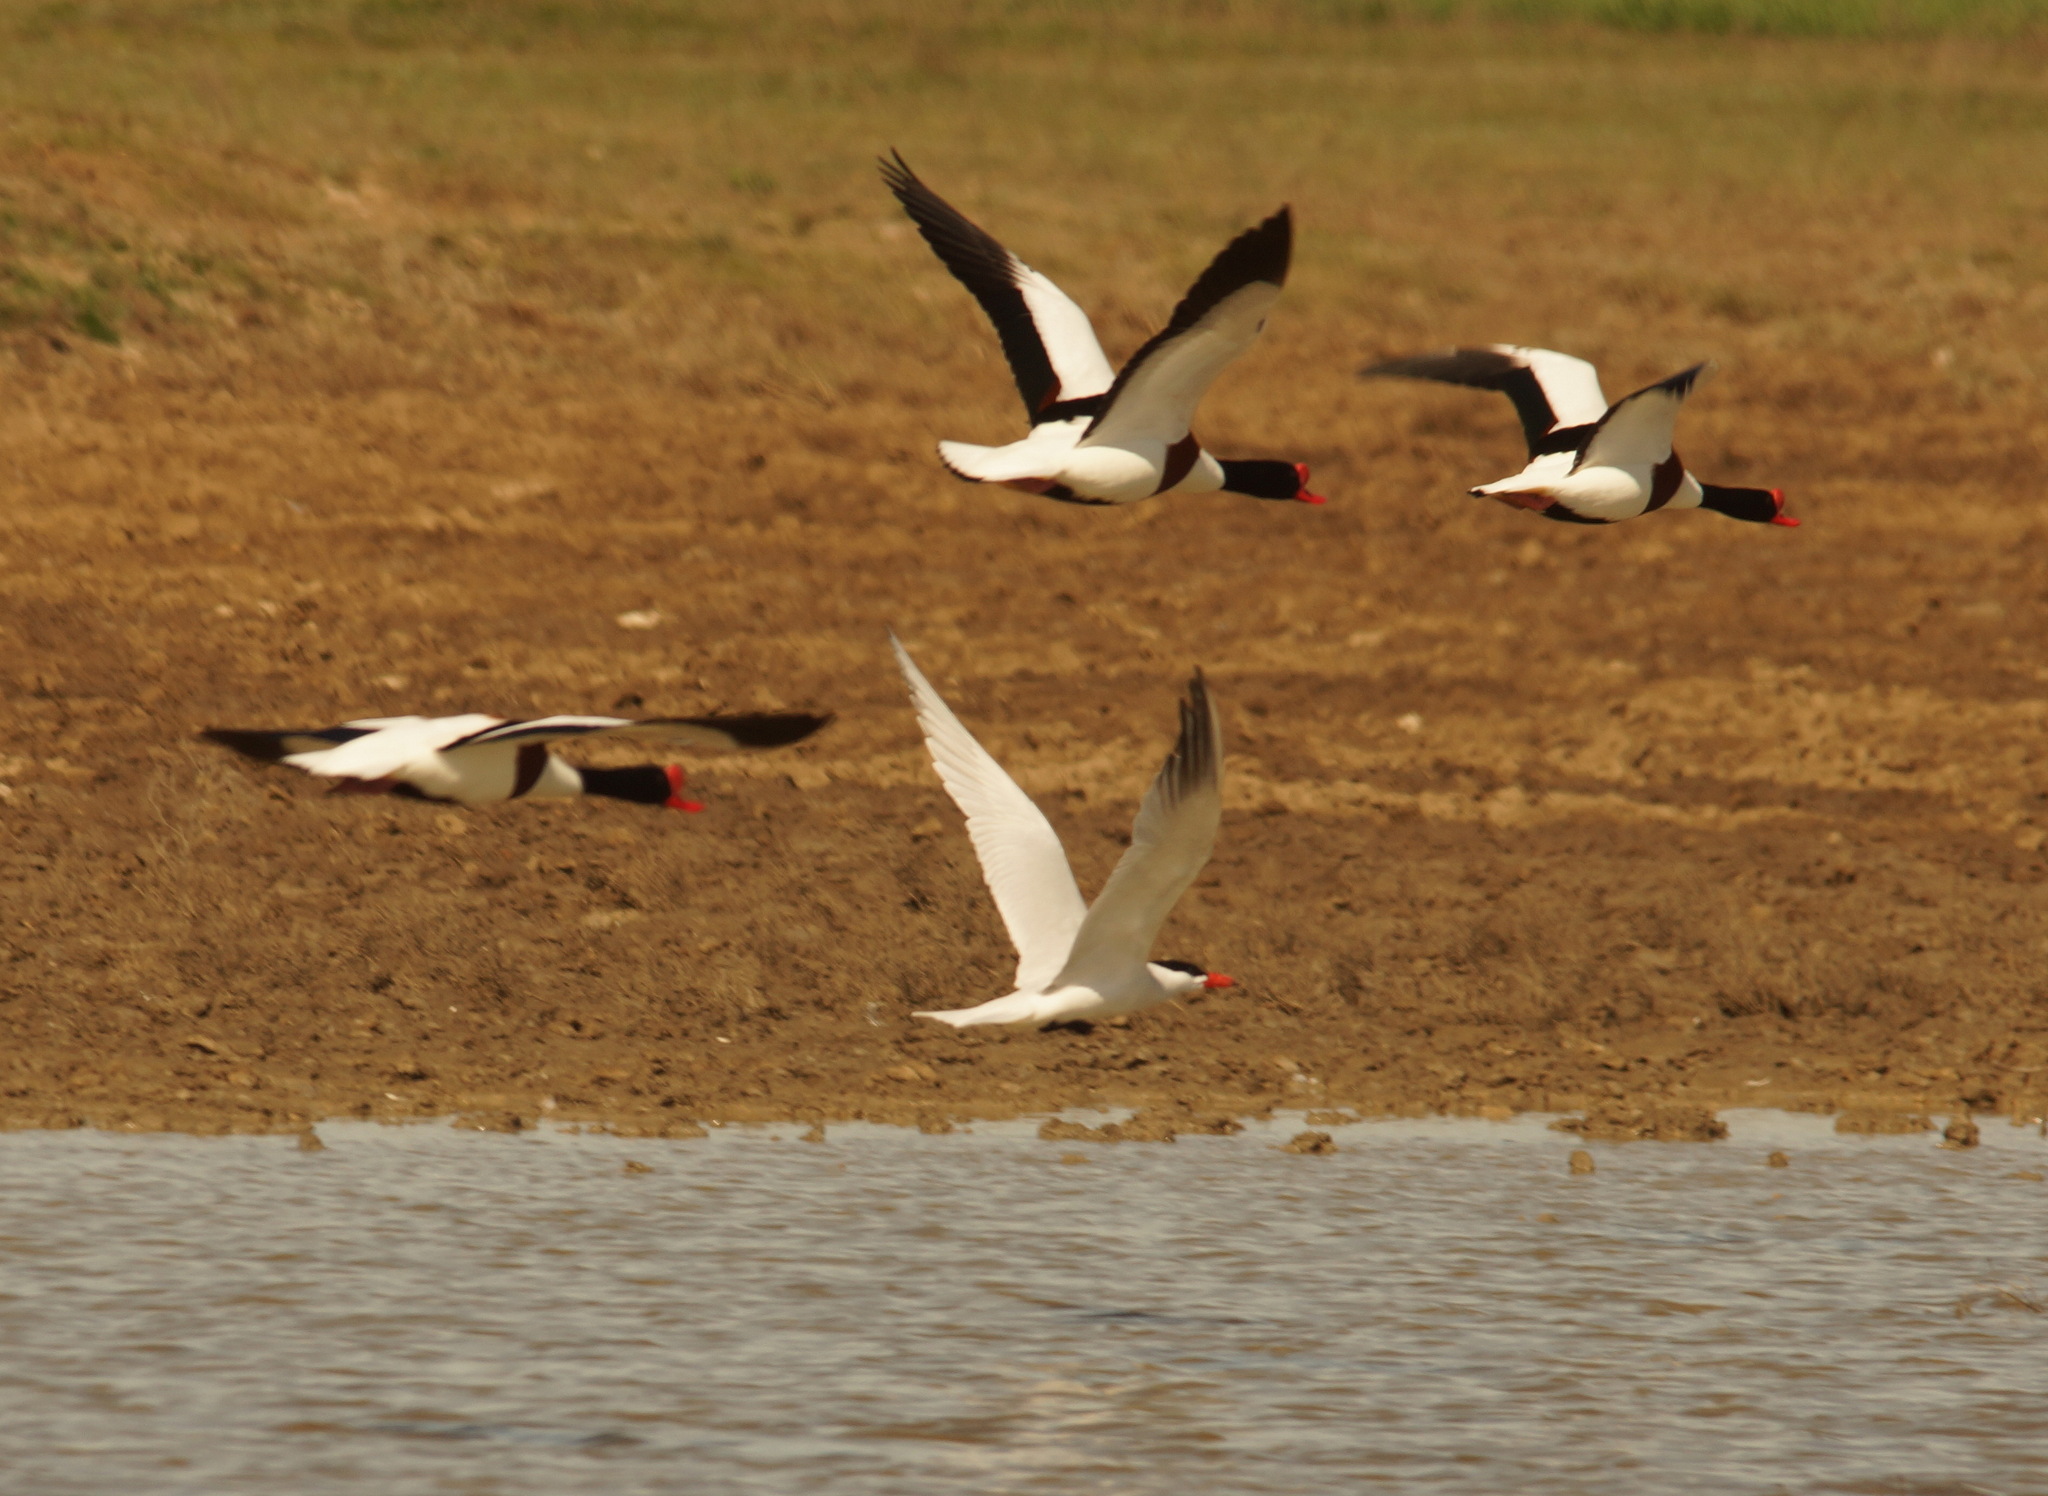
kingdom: Animalia
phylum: Chordata
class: Aves
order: Charadriiformes
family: Laridae
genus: Hydroprogne
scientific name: Hydroprogne caspia
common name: Caspian tern
